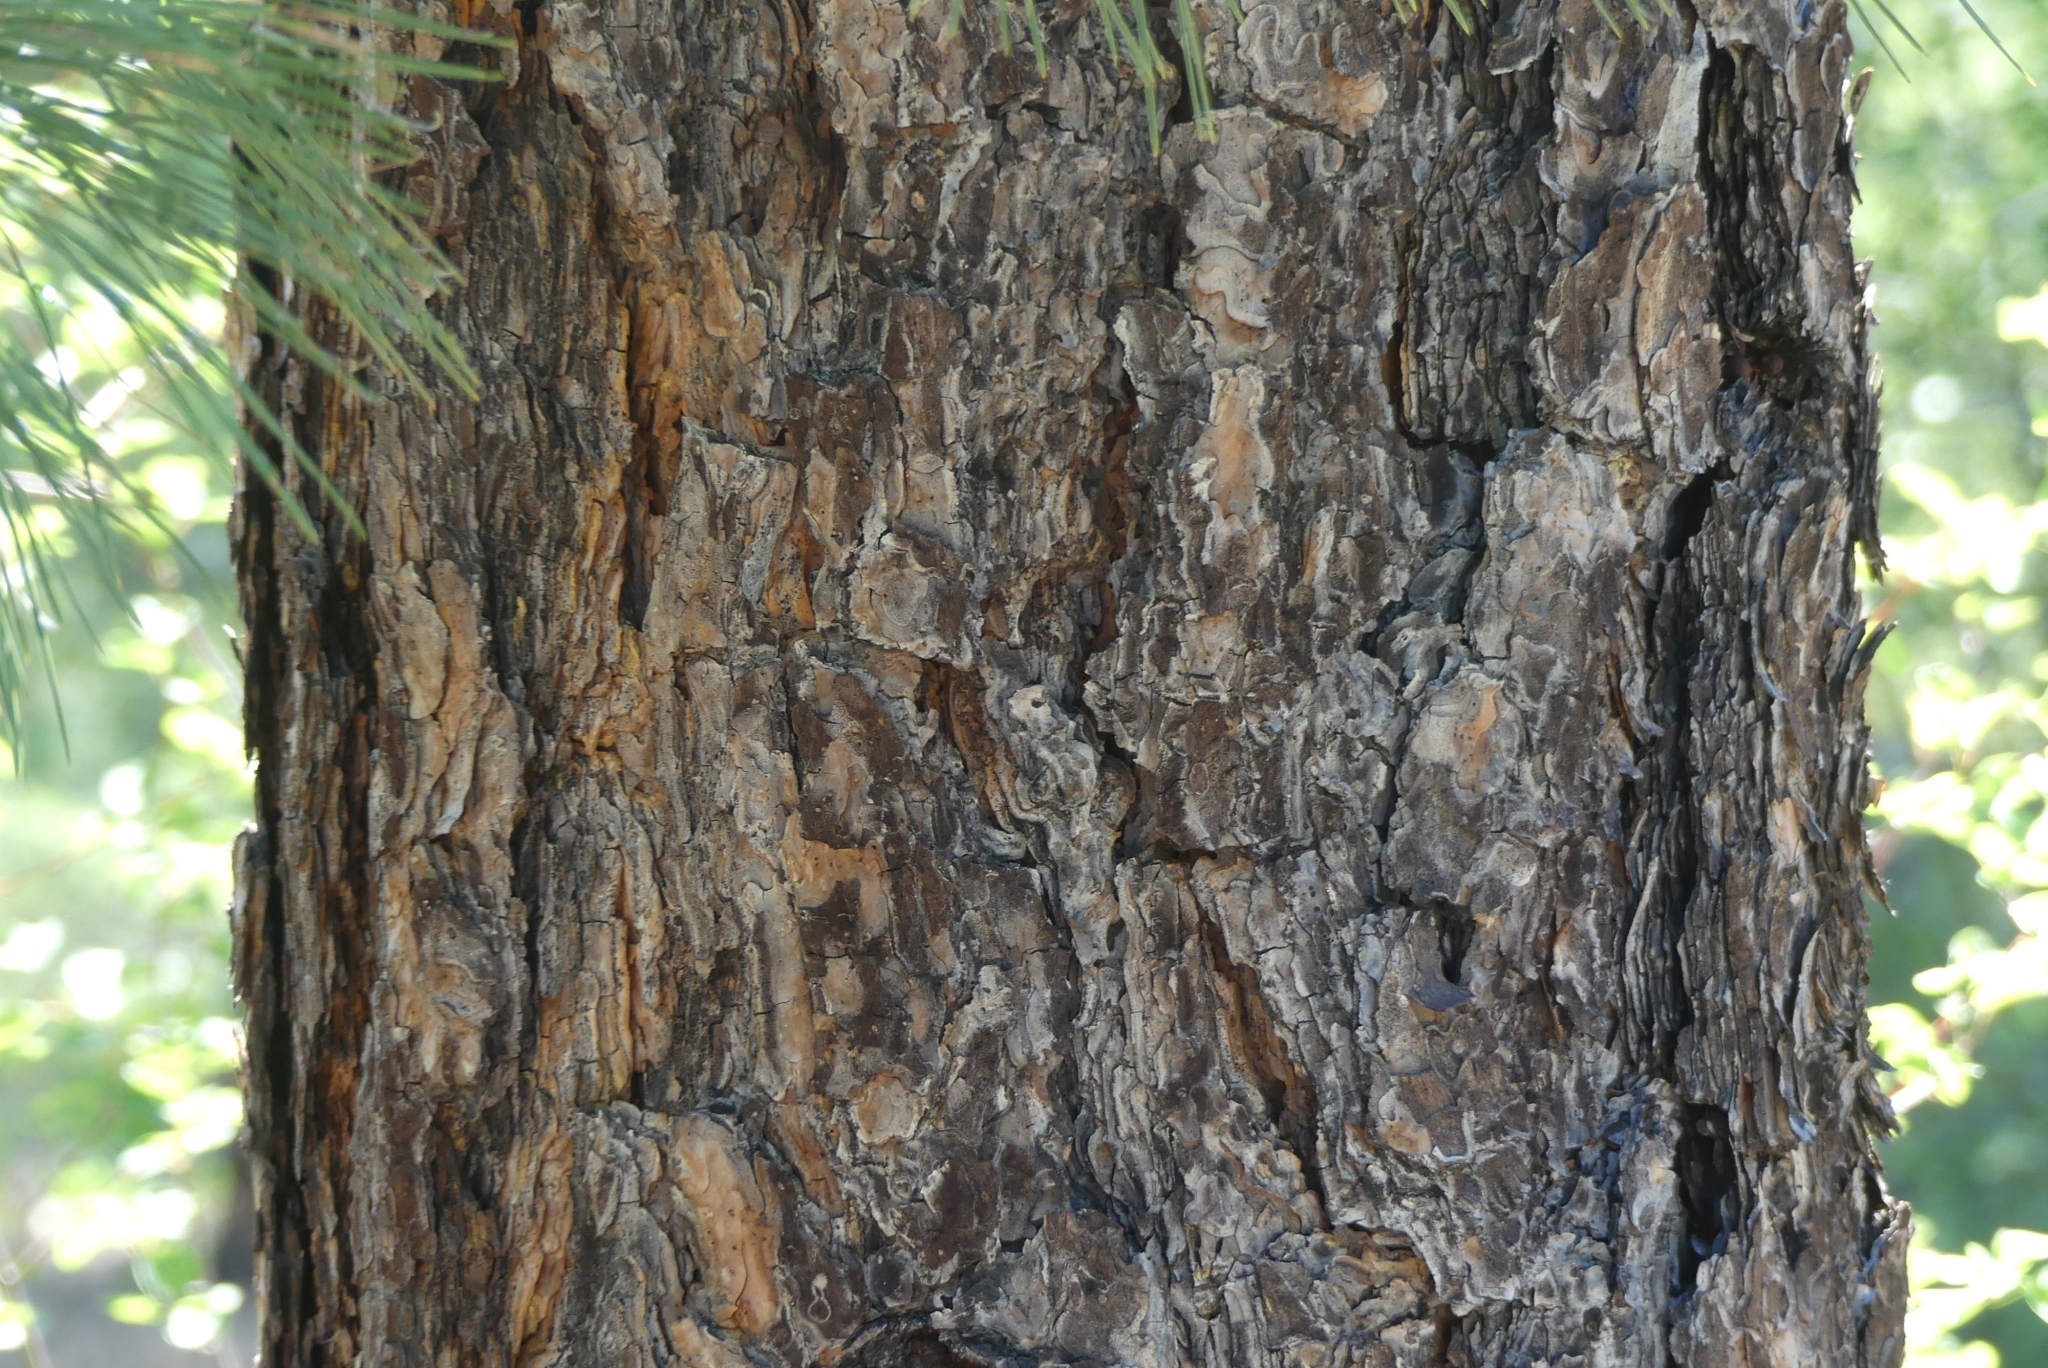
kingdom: Plantae
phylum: Tracheophyta
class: Pinopsida
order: Pinales
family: Pinaceae
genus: Pinus
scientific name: Pinus ponderosa
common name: Western yellow-pine
